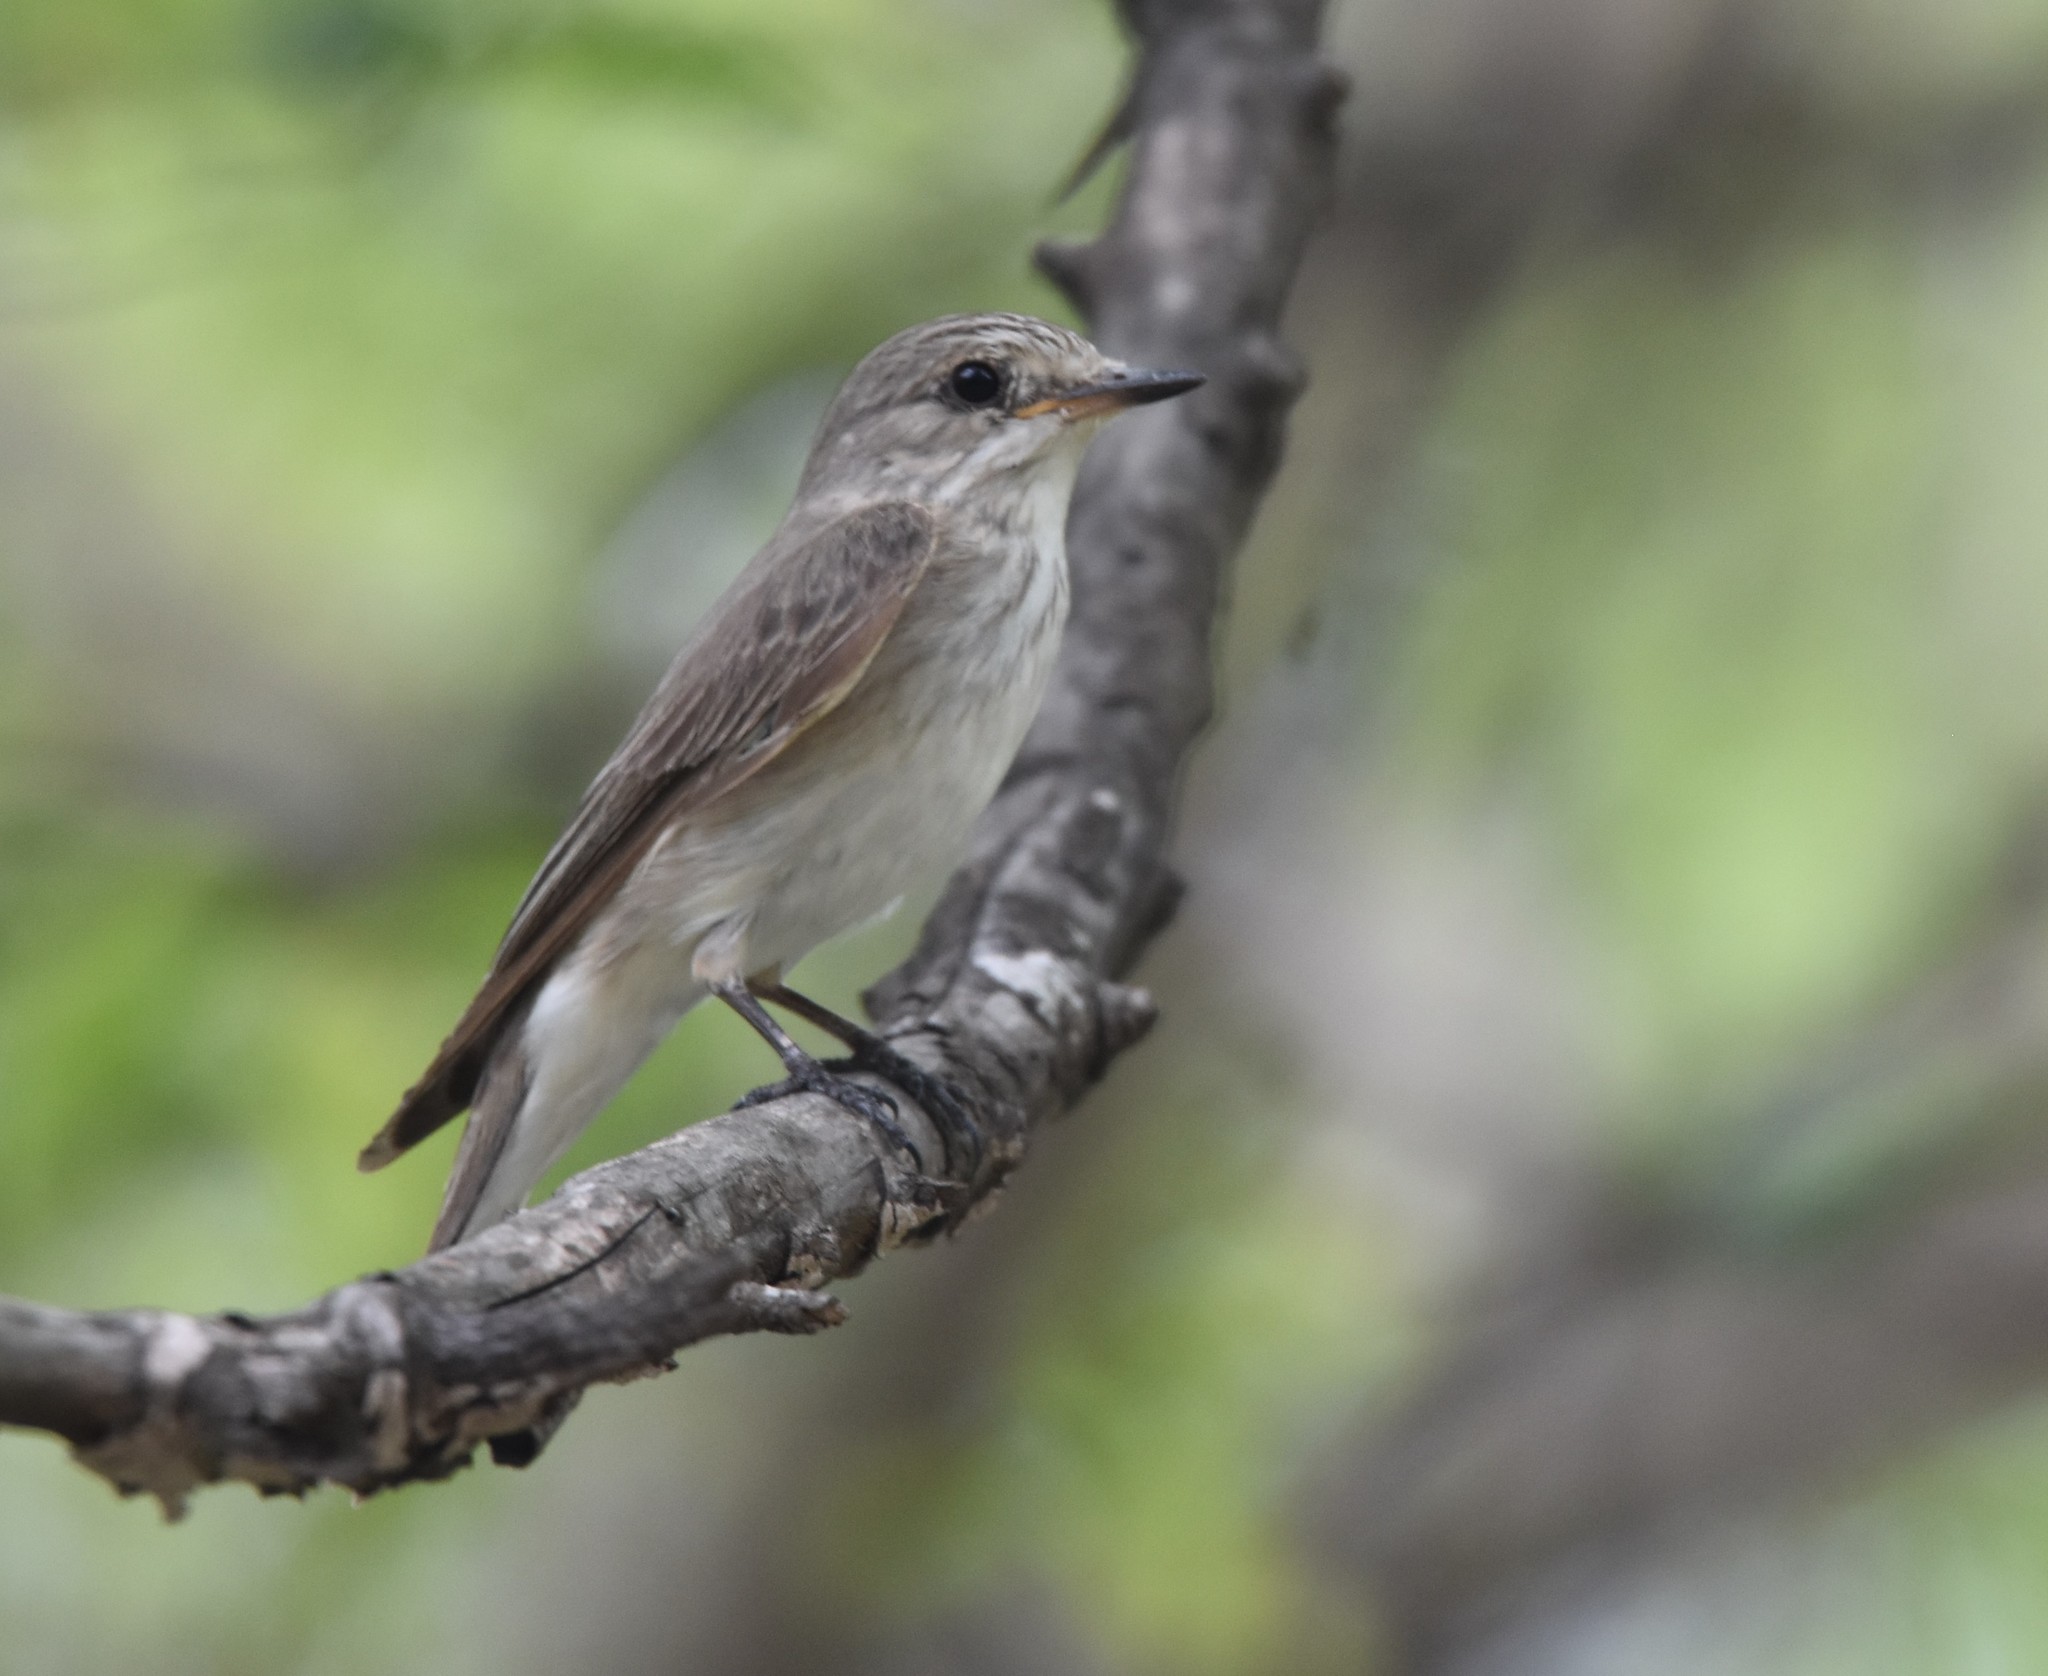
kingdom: Animalia
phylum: Chordata
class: Aves
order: Passeriformes
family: Muscicapidae
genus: Muscicapa
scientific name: Muscicapa striata
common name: Spotted flycatcher
